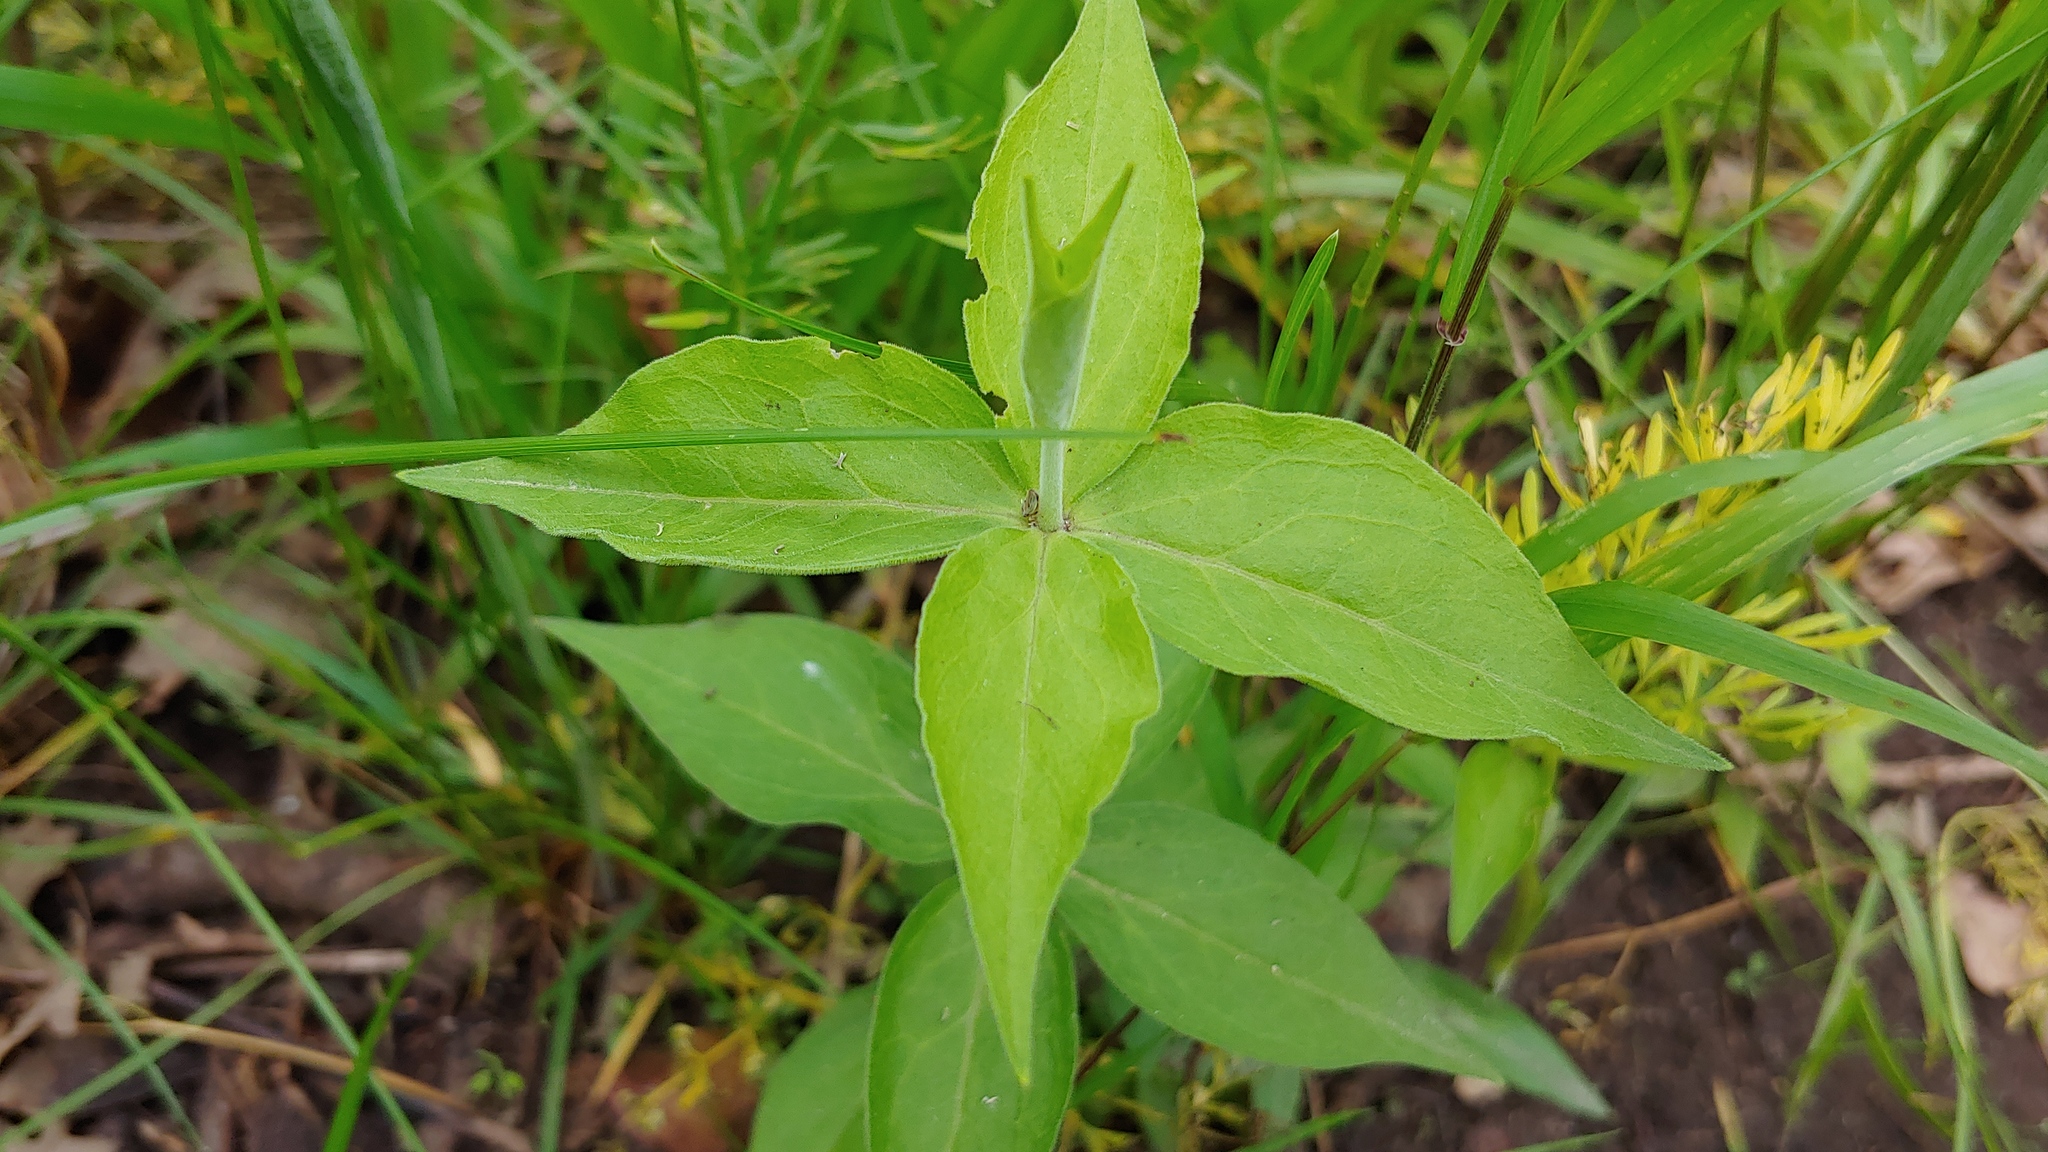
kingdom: Plantae
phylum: Tracheophyta
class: Magnoliopsida
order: Caryophyllales
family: Caryophyllaceae
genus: Silene
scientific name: Silene stellata
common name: Starry campion
